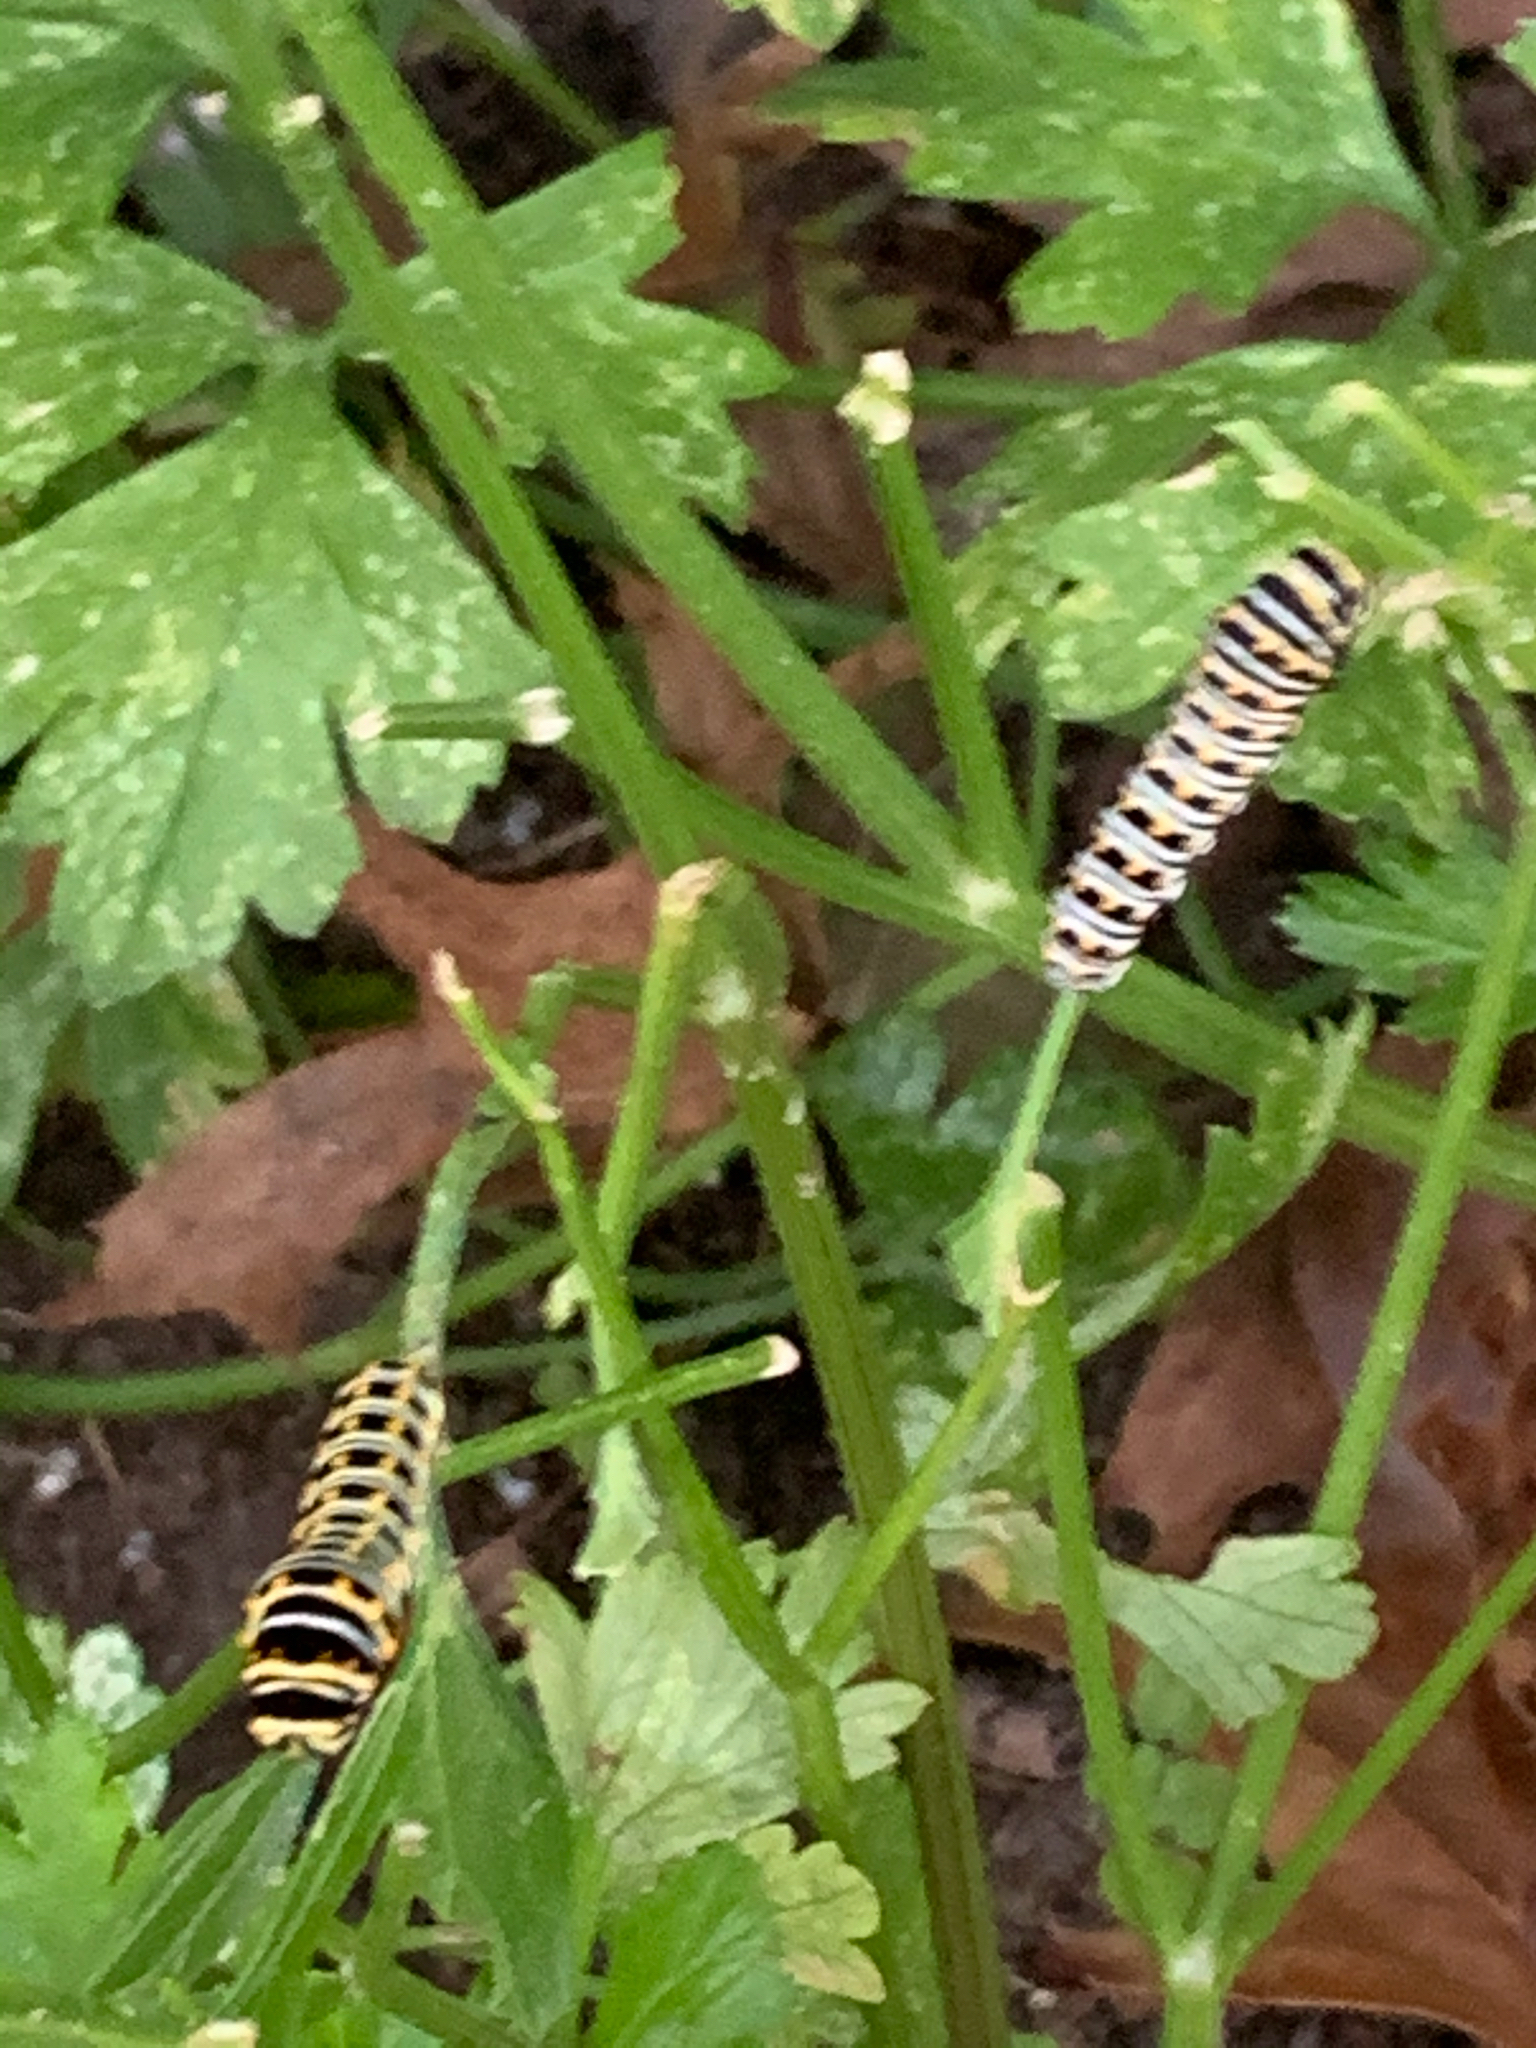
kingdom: Animalia
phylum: Arthropoda
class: Insecta
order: Lepidoptera
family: Papilionidae
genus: Papilio
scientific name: Papilio polyxenes
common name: Black swallowtail
